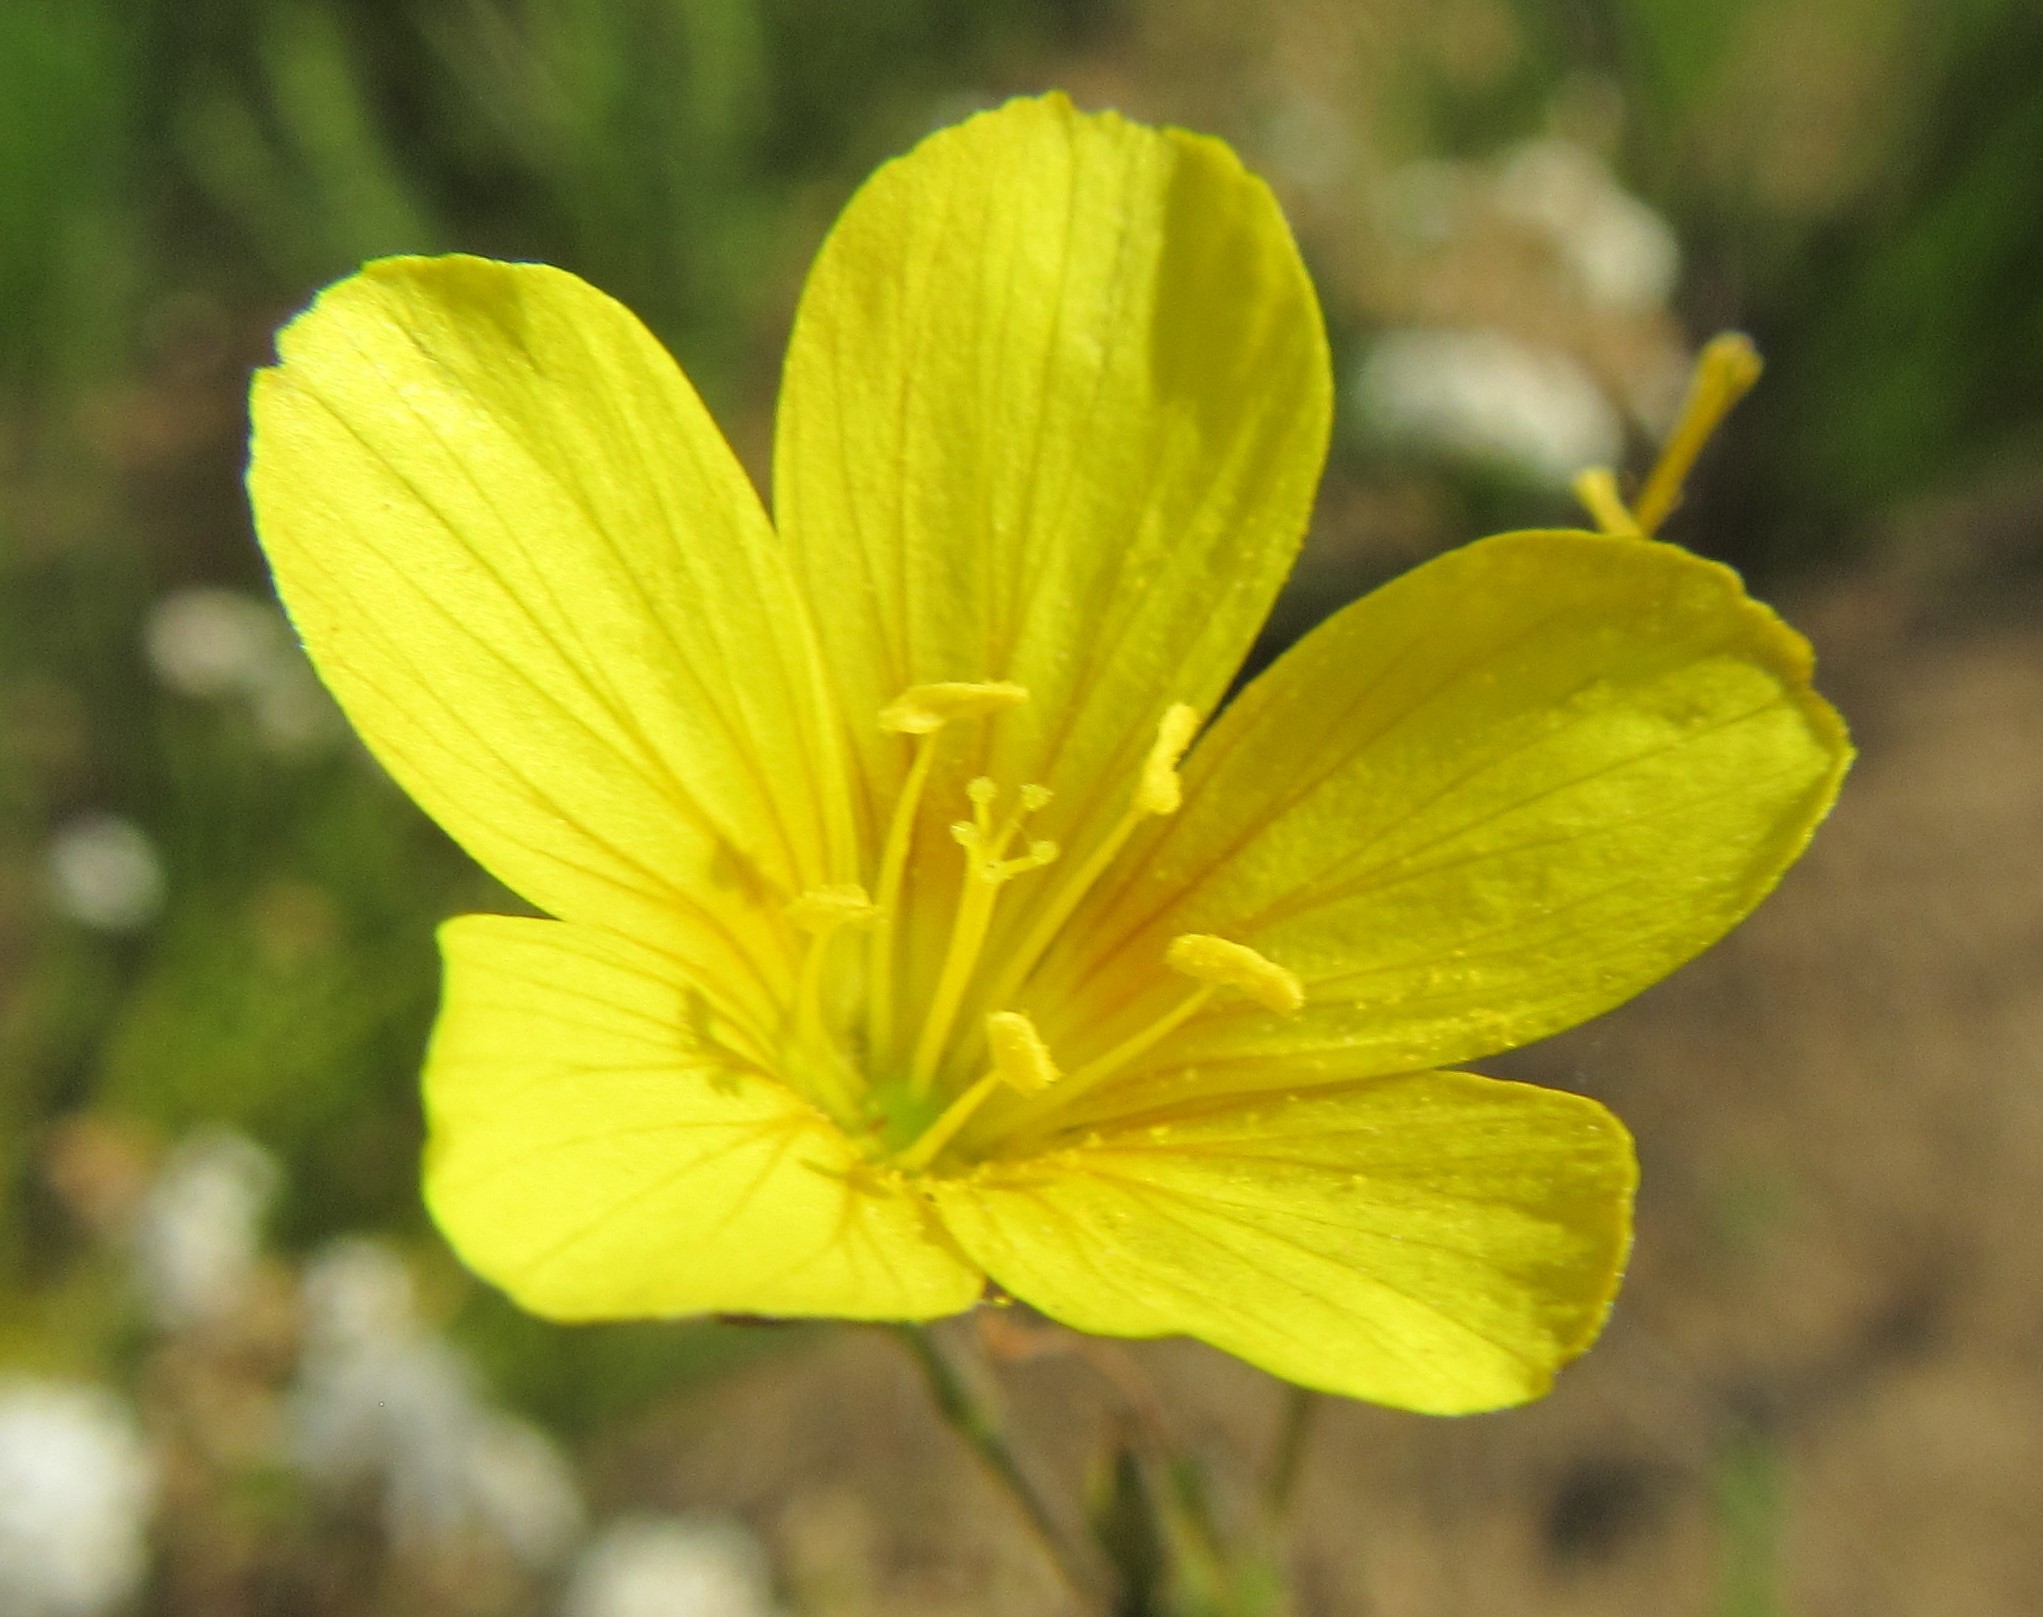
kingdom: Plantae
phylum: Tracheophyta
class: Magnoliopsida
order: Malpighiales
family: Linaceae
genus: Linum
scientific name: Linum africanum
